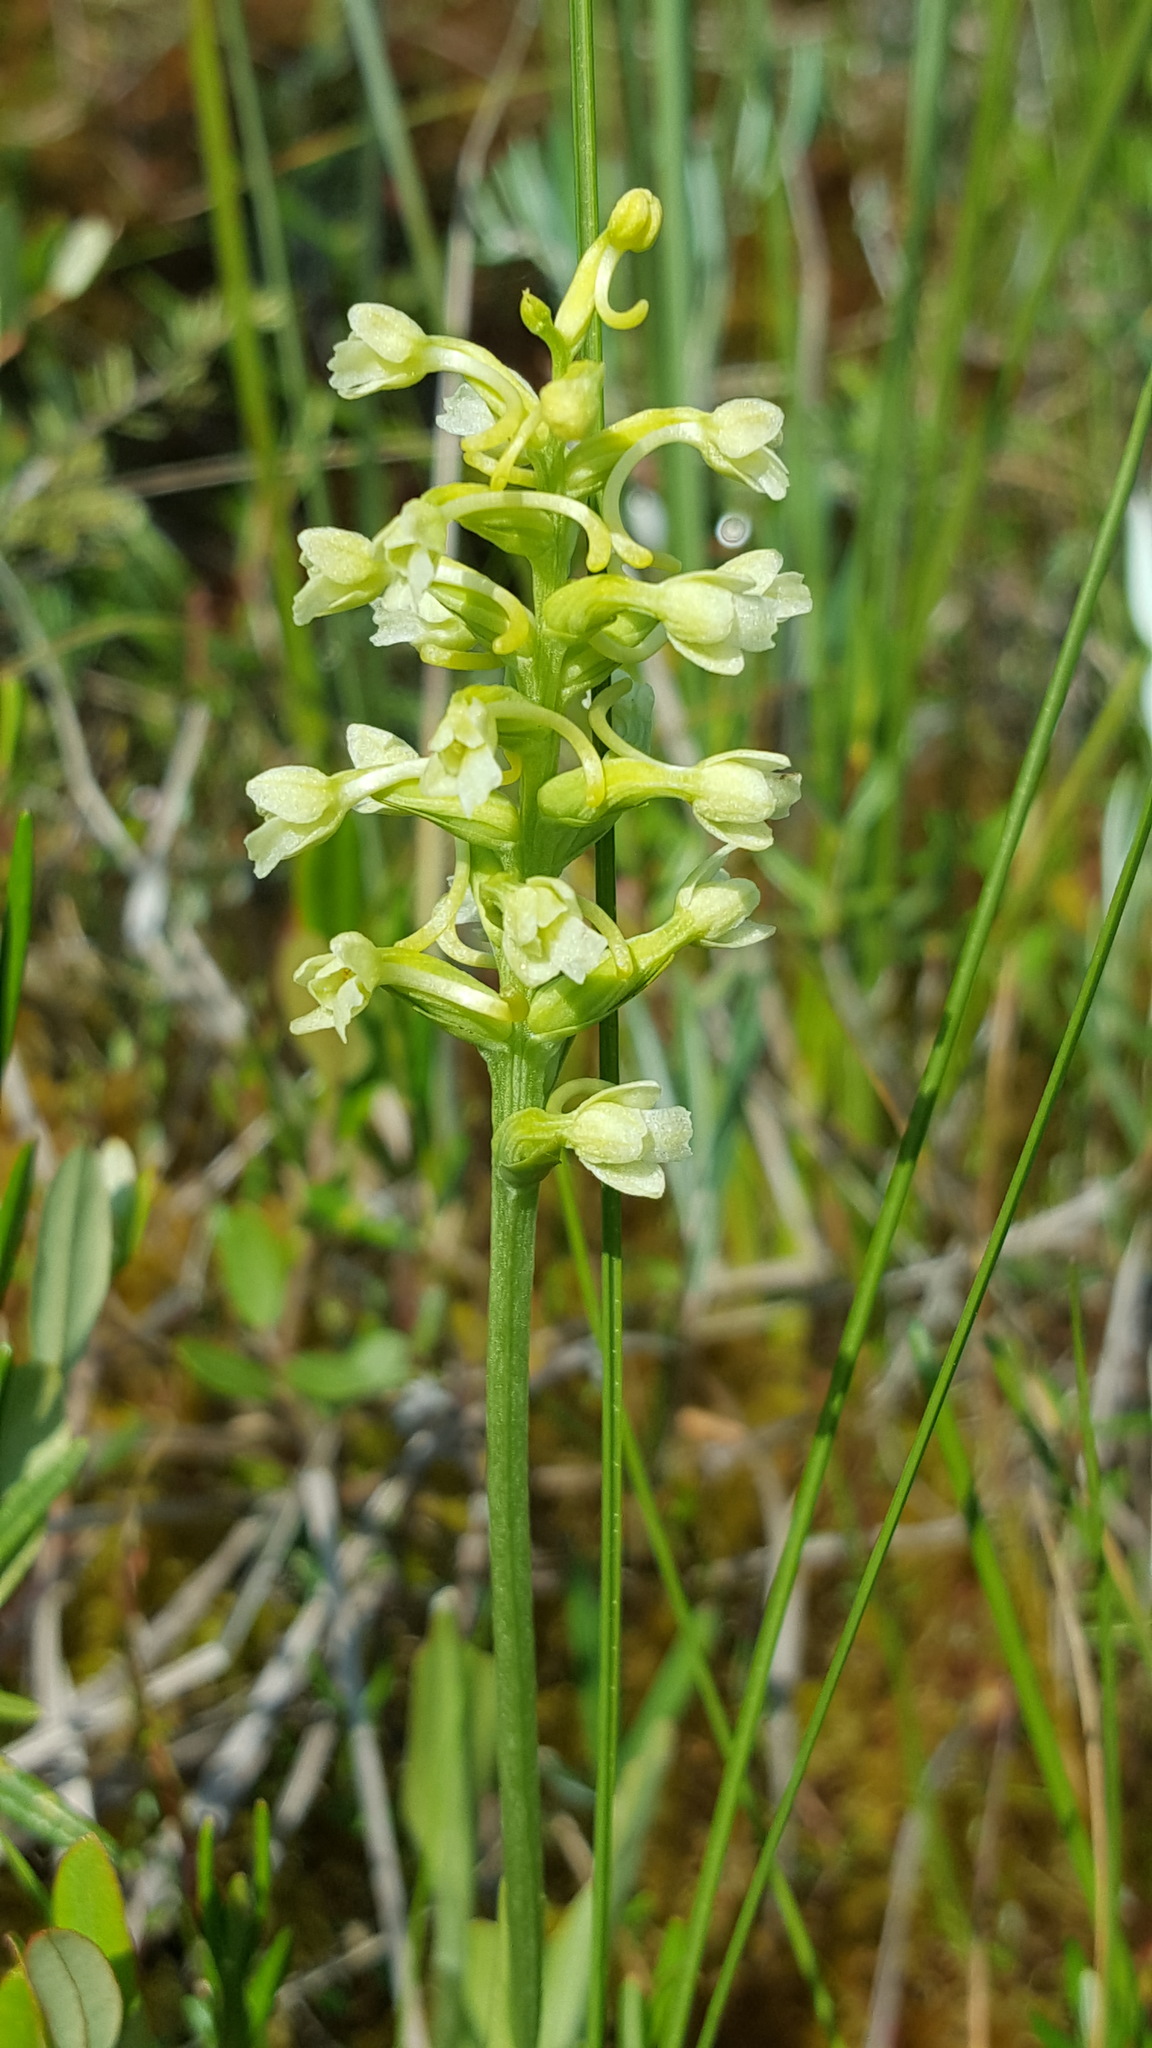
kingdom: Plantae
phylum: Tracheophyta
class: Liliopsida
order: Asparagales
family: Orchidaceae
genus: Platanthera
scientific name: Platanthera clavellata
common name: Club-spur orchid
